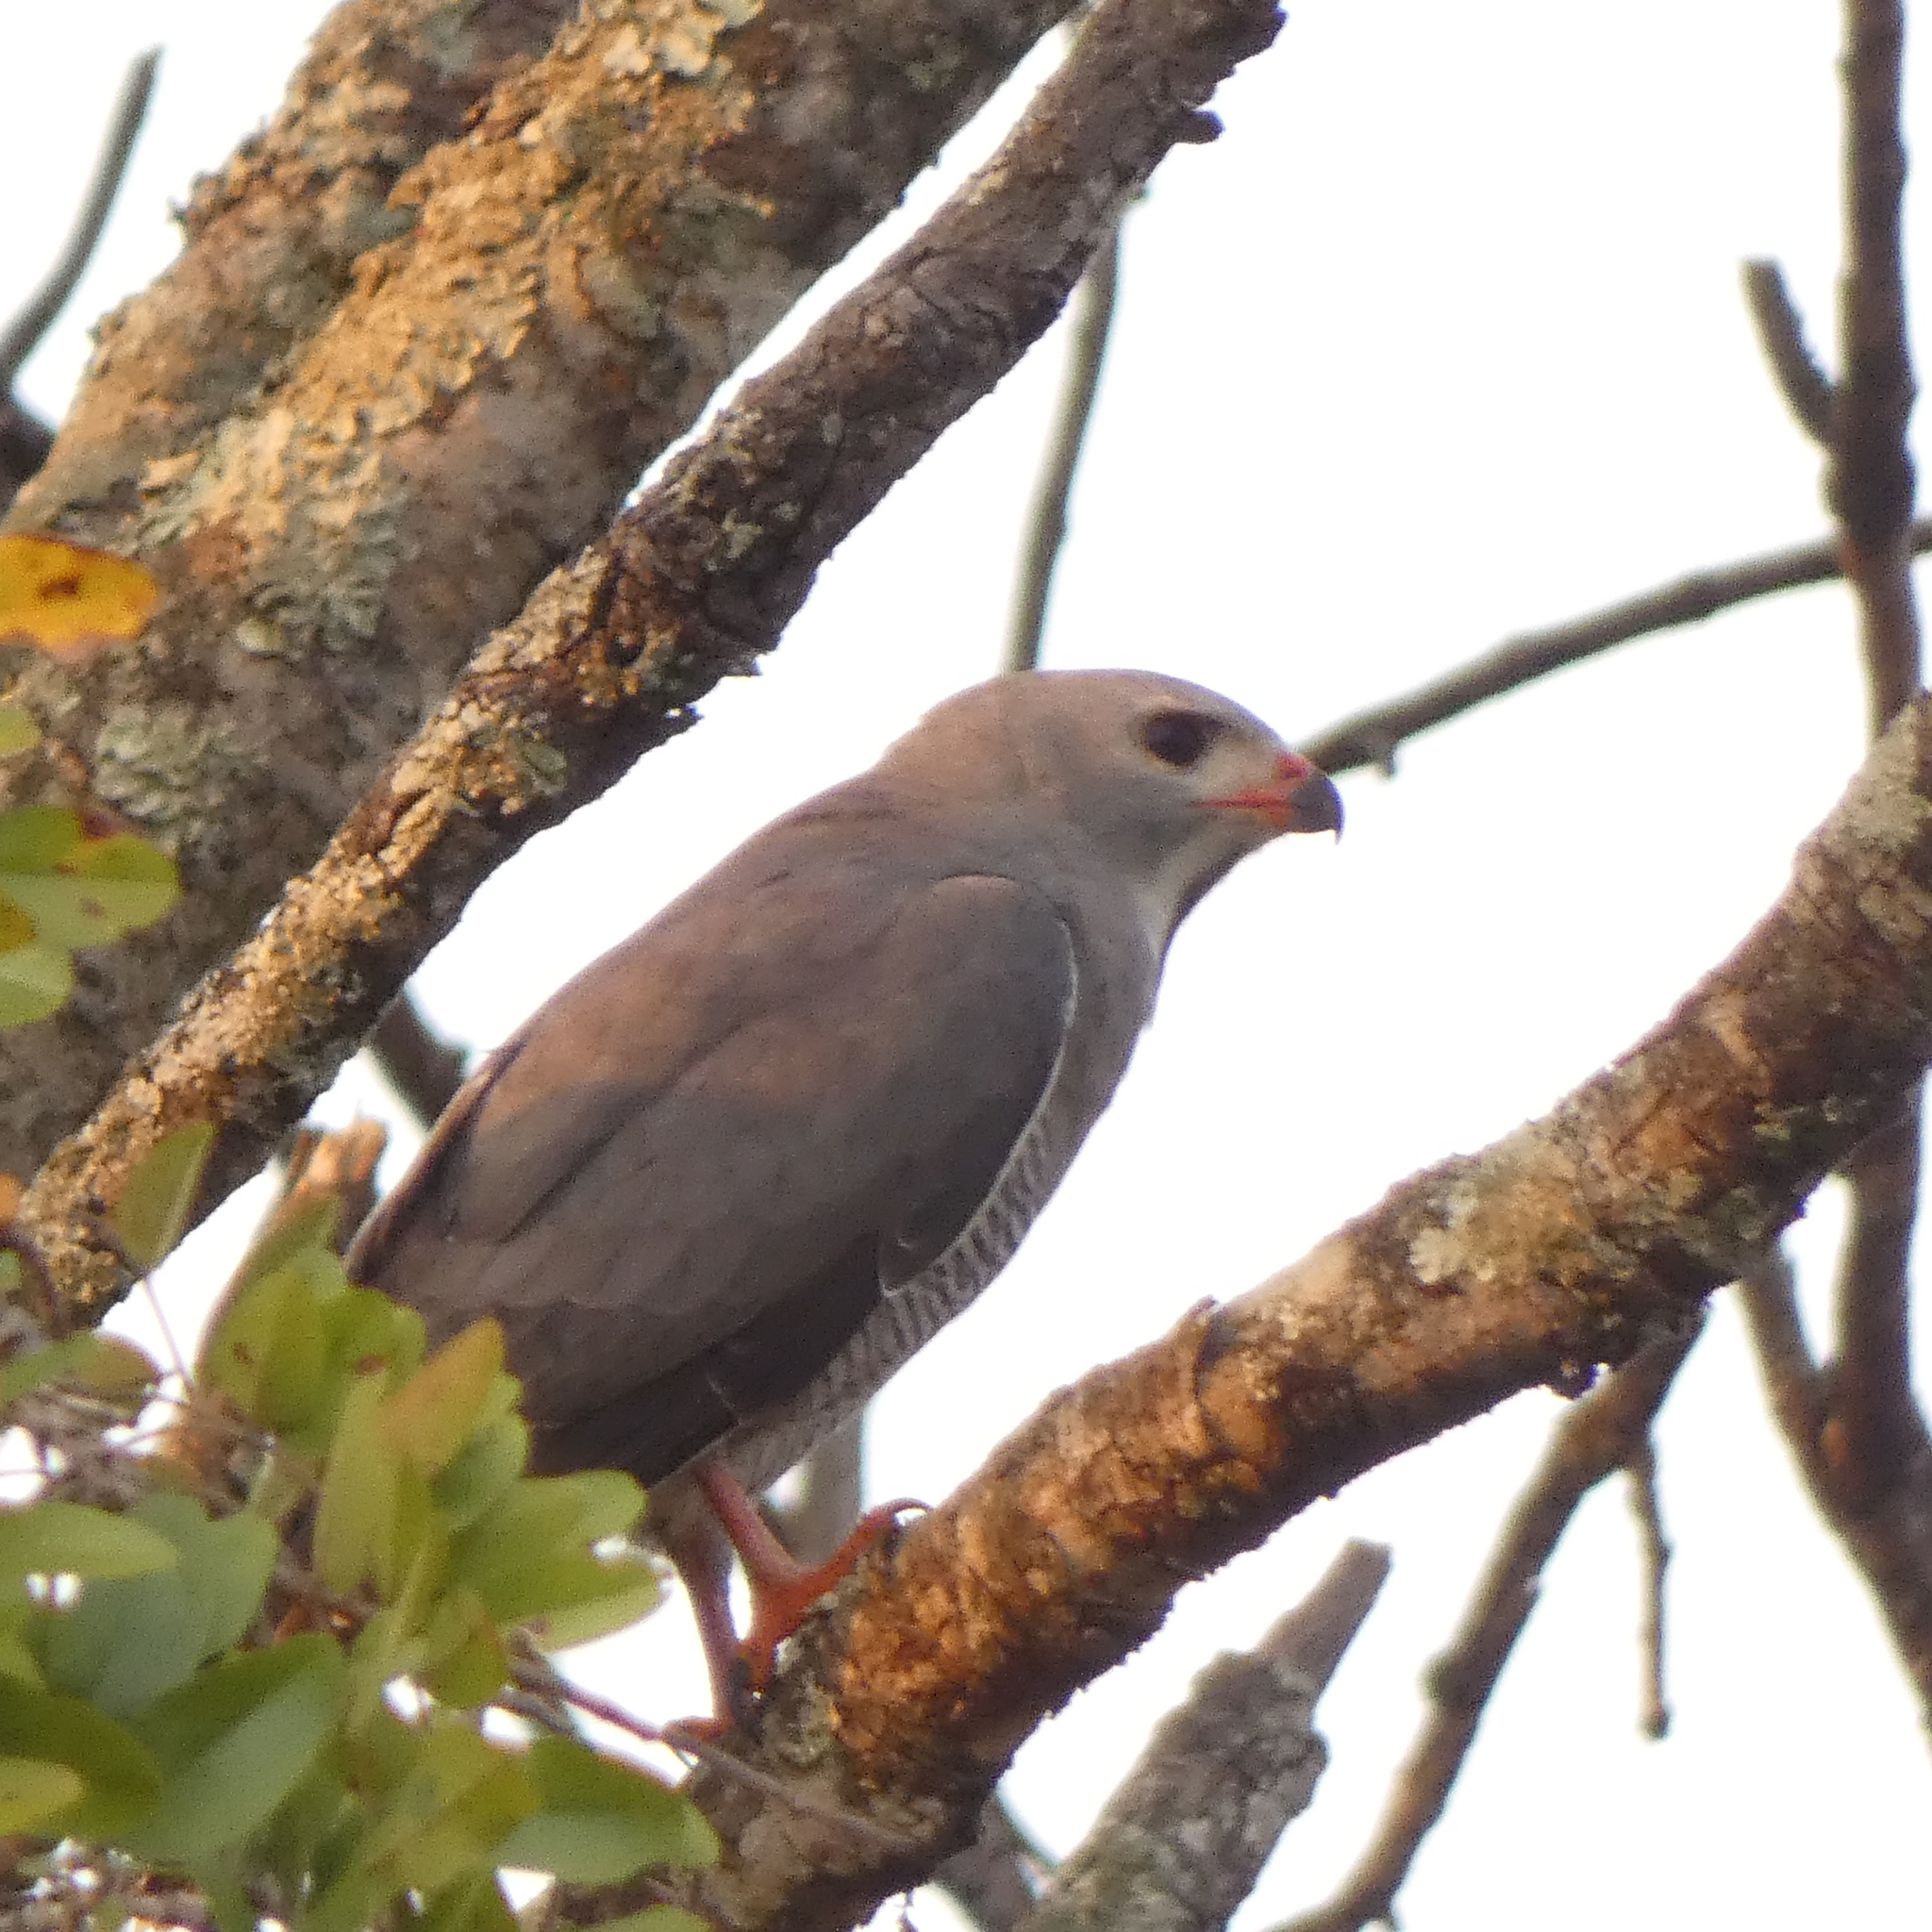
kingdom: Animalia
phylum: Chordata
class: Aves
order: Accipitriformes
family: Accipitridae
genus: Kaupifalco
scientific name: Kaupifalco monogrammicus
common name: Lizard buzzard
